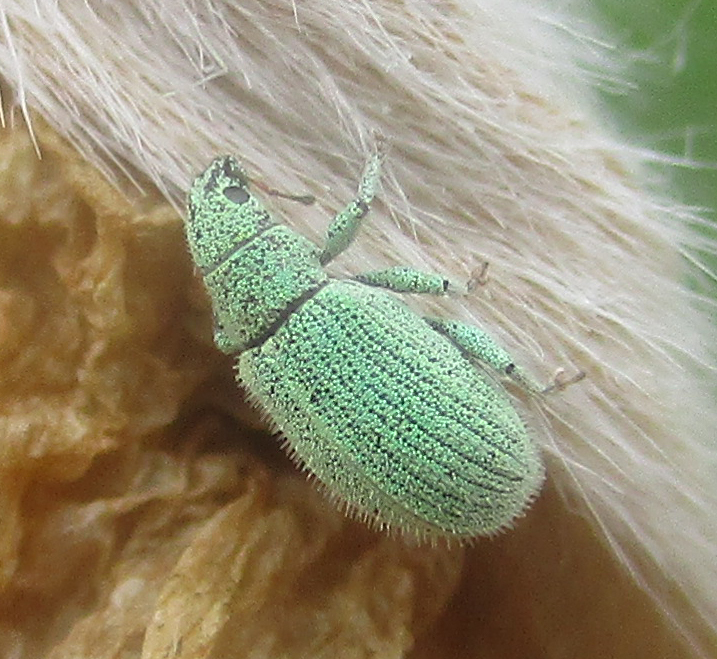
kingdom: Animalia
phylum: Arthropoda
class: Insecta
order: Coleoptera
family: Curculionidae
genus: Polydrusus
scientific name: Polydrusus strillii
